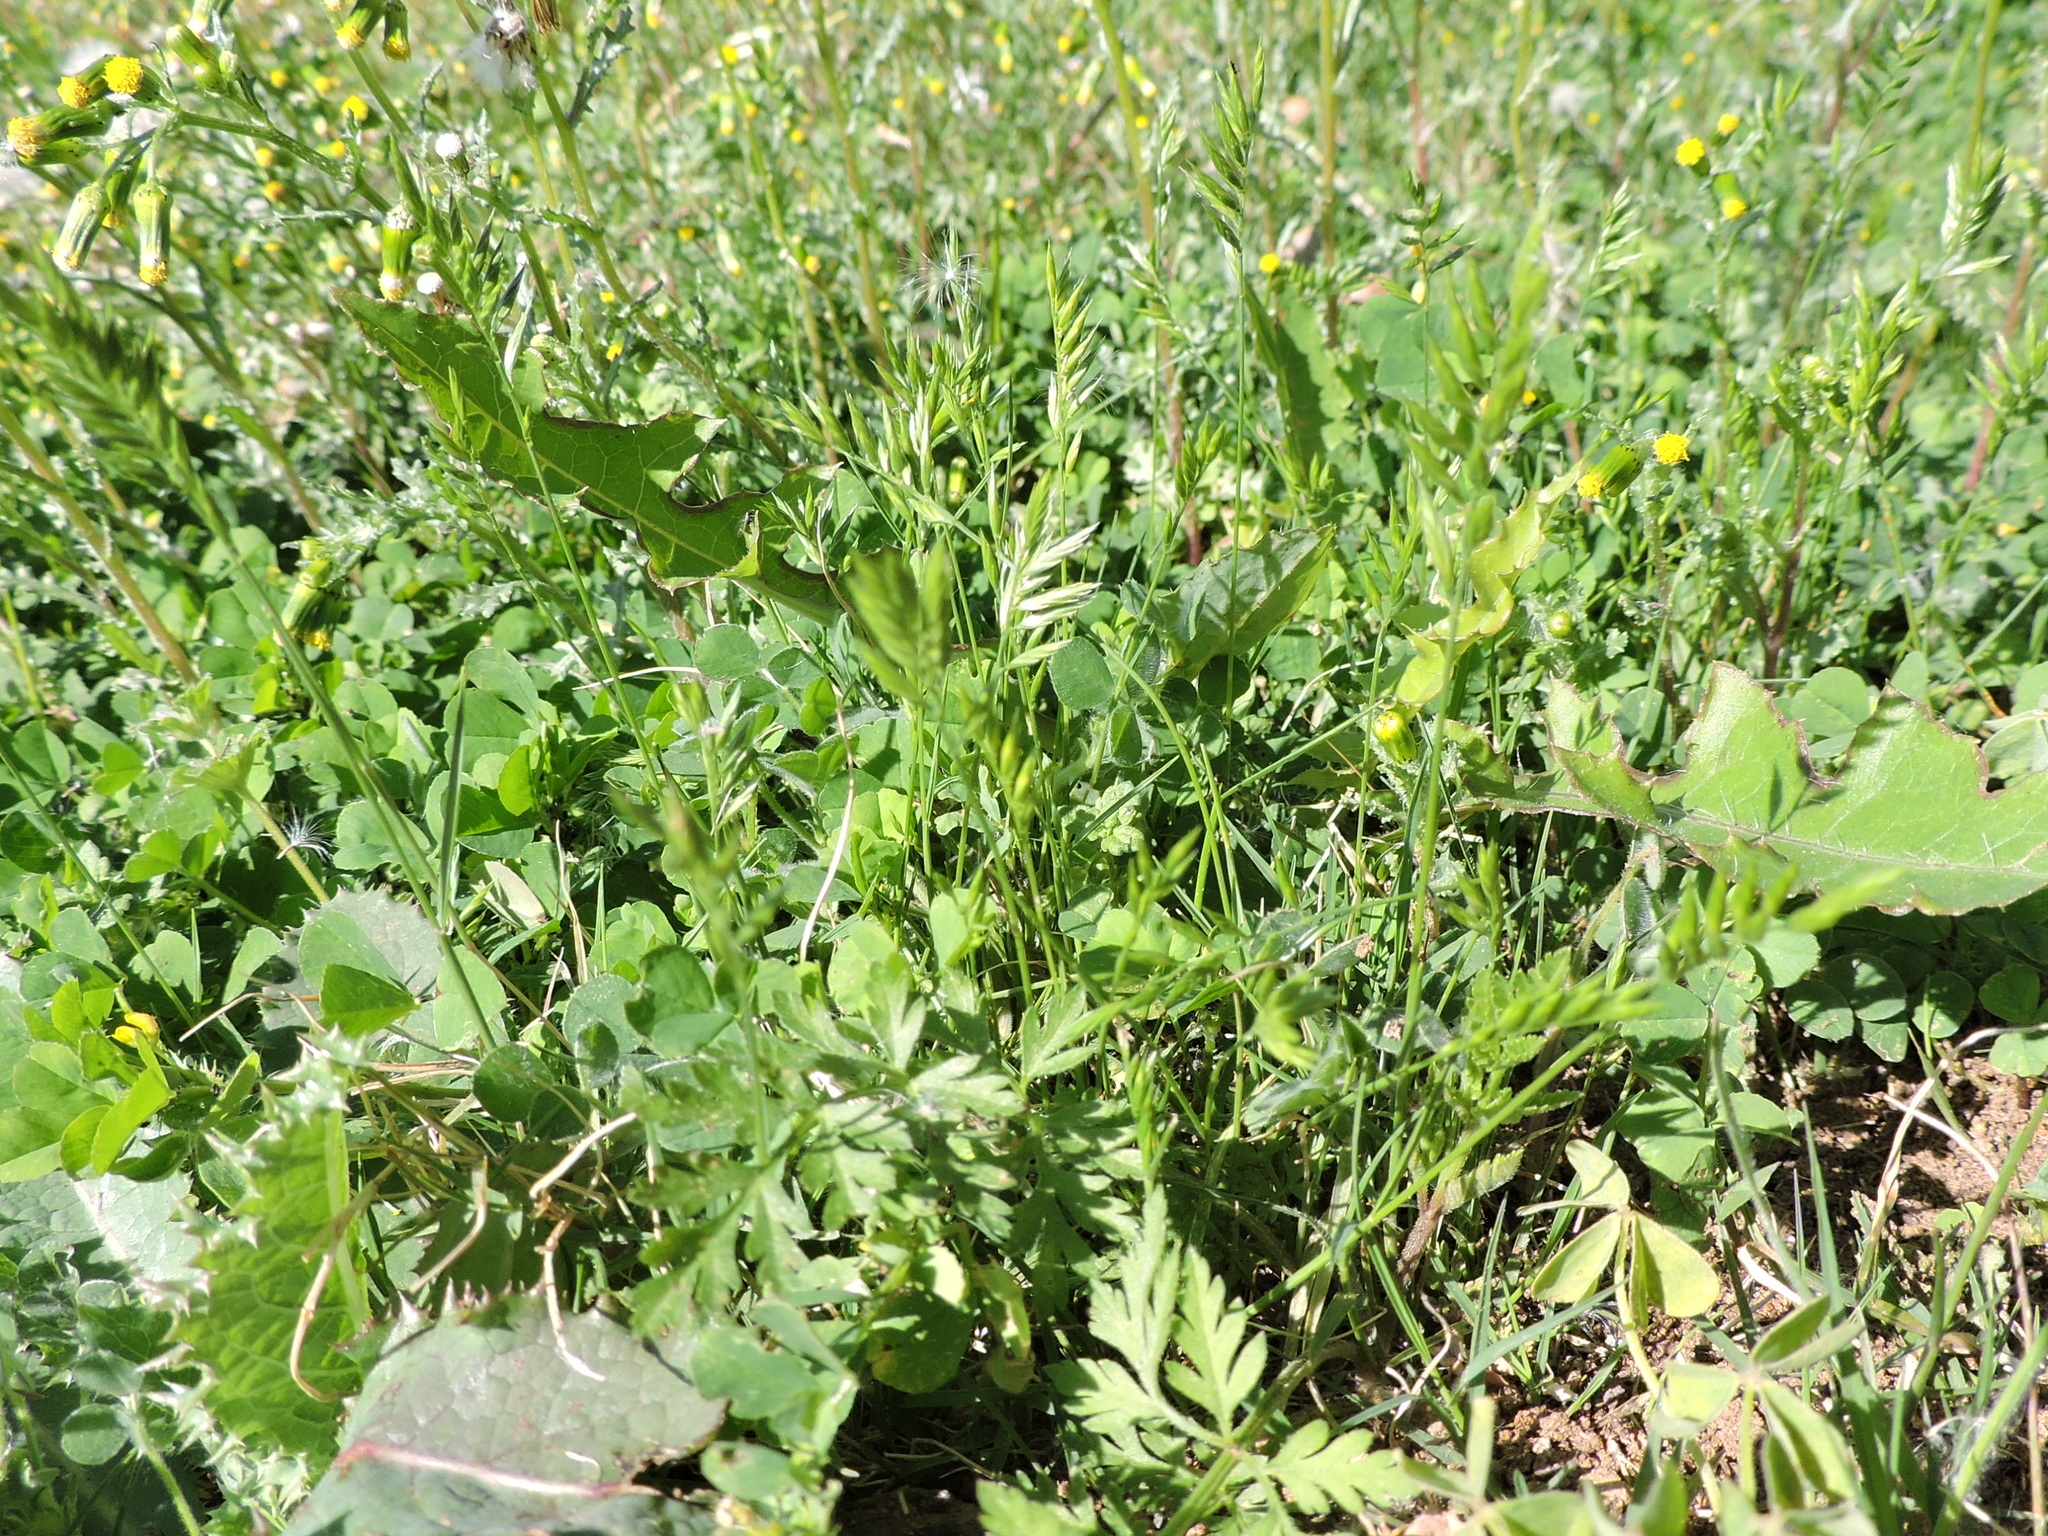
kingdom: Plantae
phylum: Tracheophyta
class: Liliopsida
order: Poales
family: Poaceae
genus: Festuca
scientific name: Festuca octoflora
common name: Sixweeks grass
